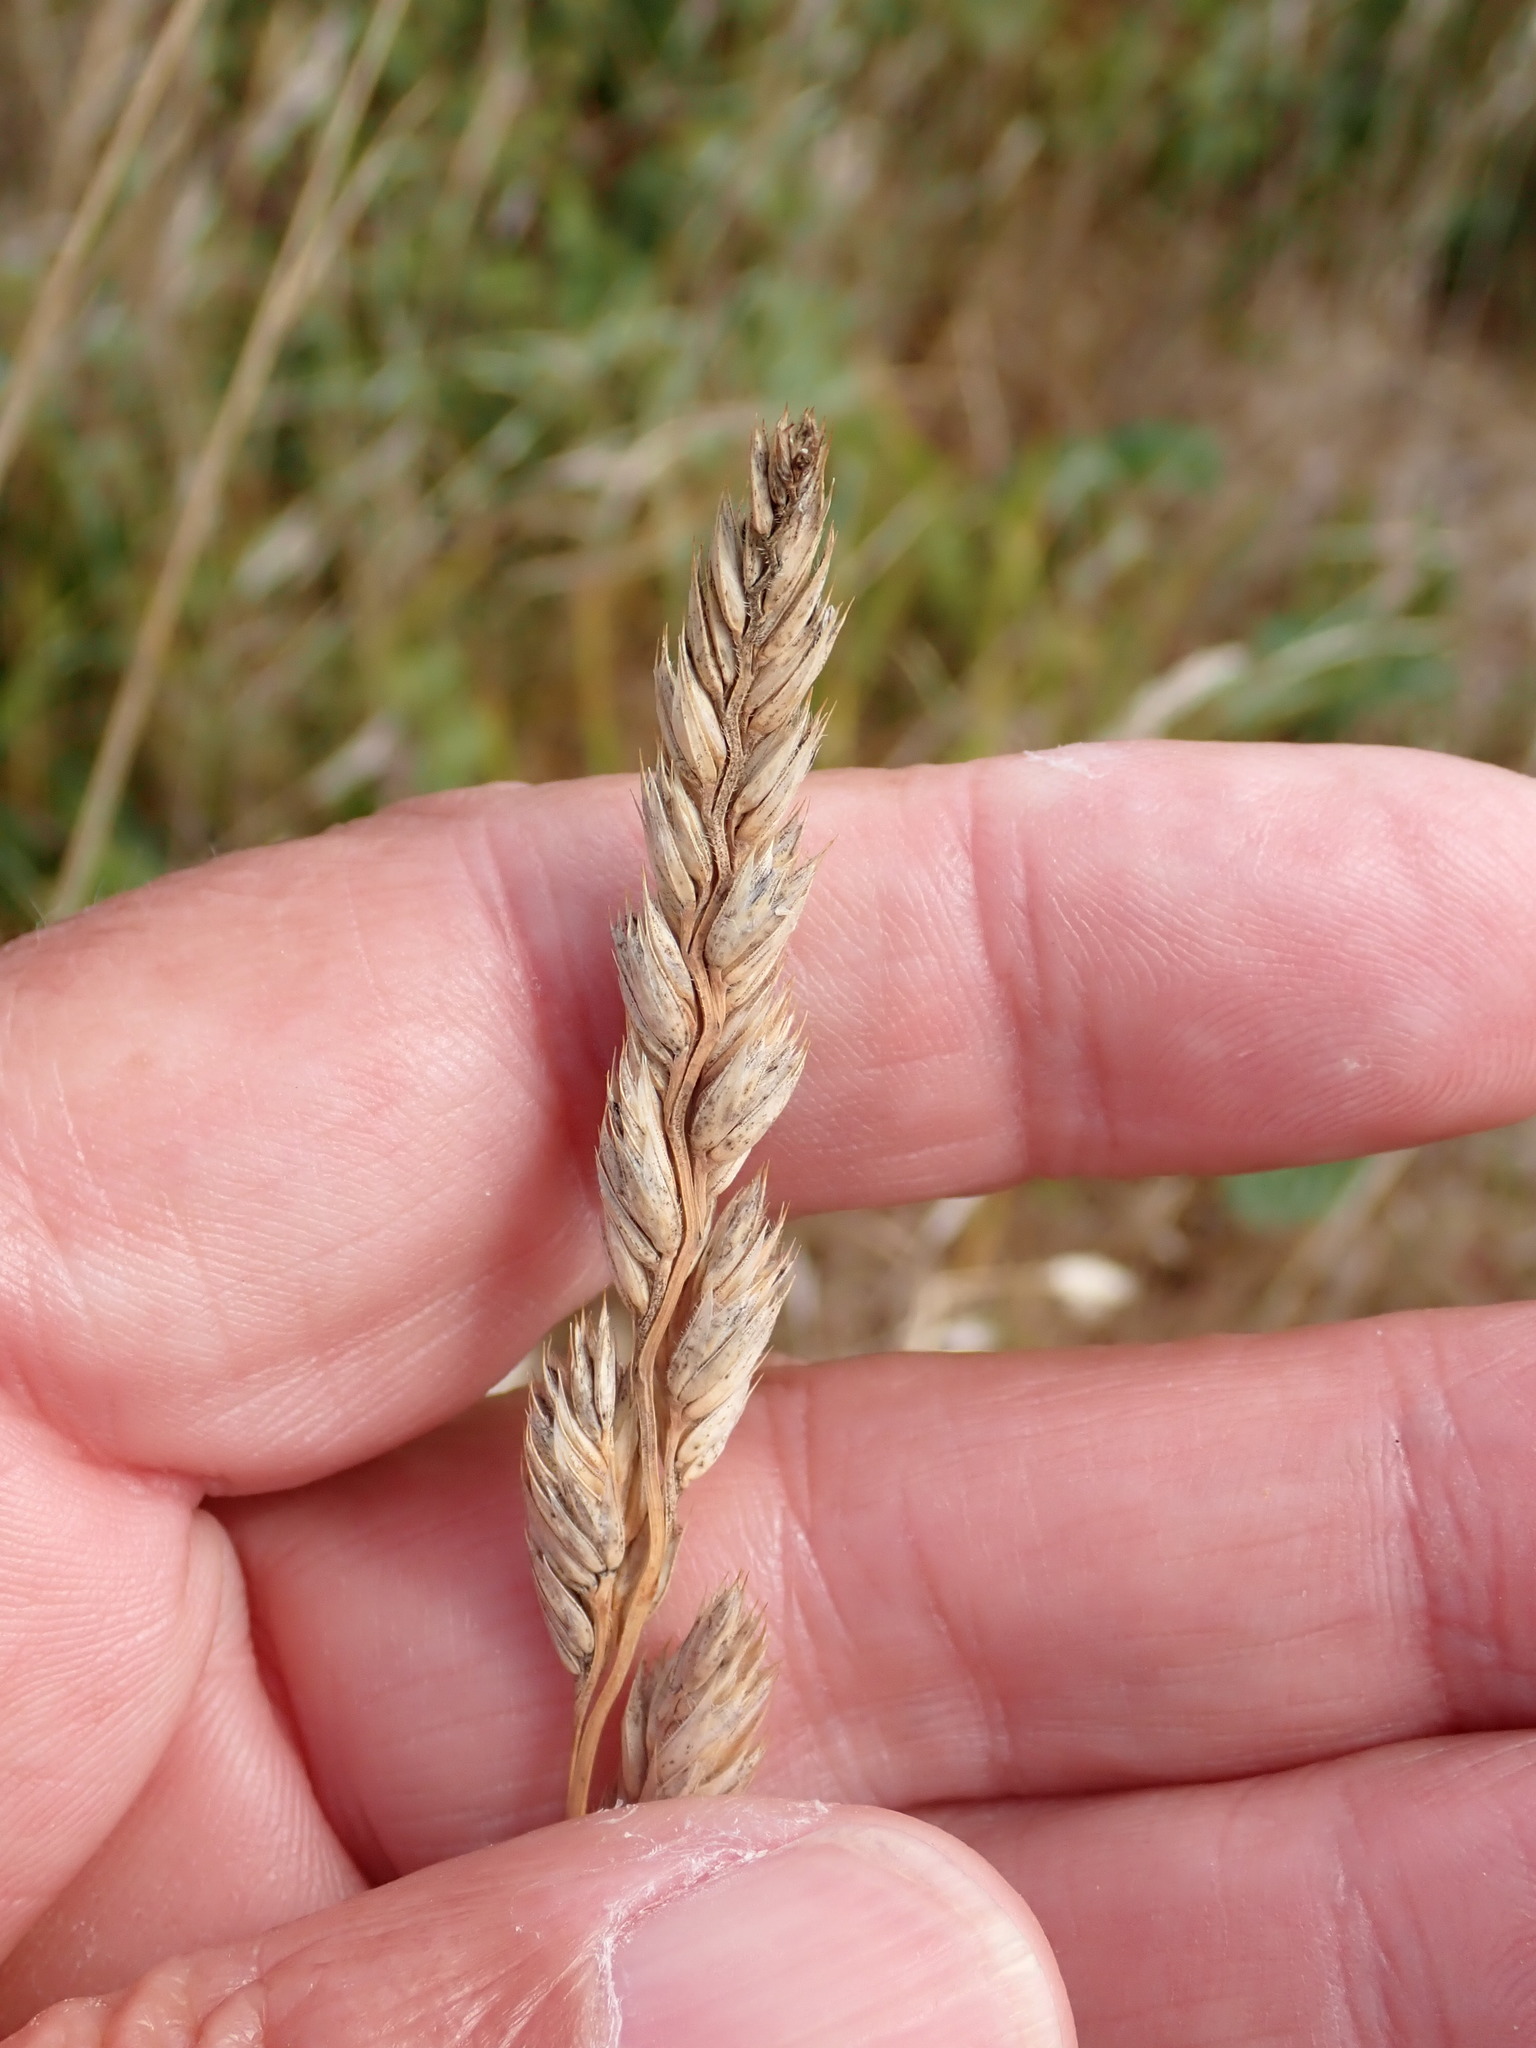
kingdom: Plantae
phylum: Tracheophyta
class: Liliopsida
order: Poales
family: Poaceae
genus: Dactylis
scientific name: Dactylis glomerata
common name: Orchardgrass
